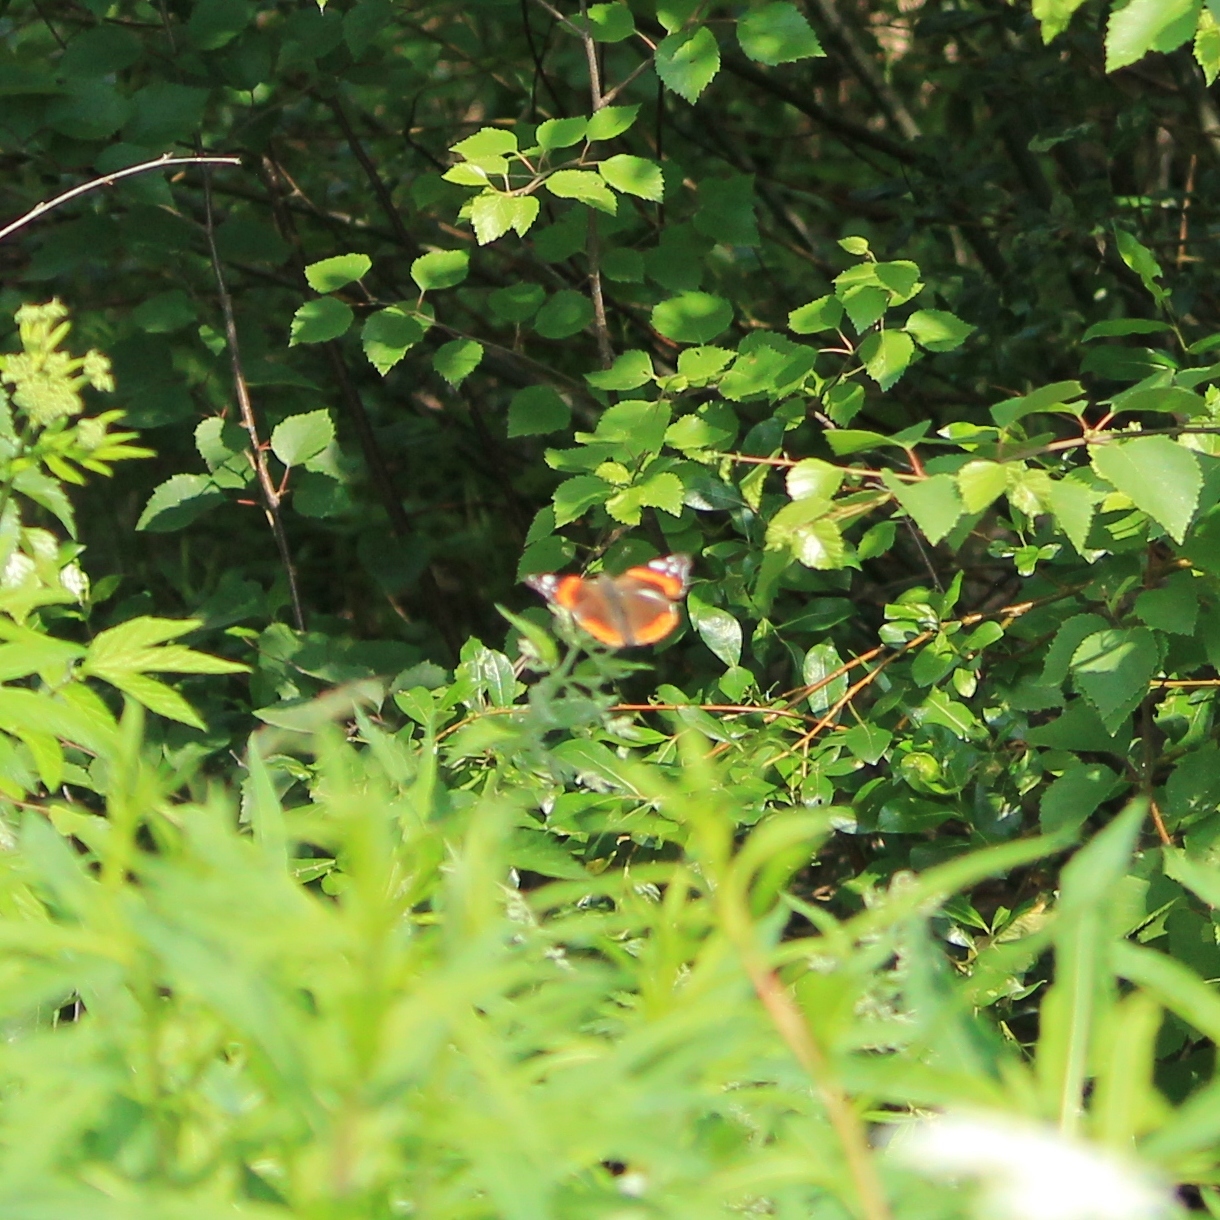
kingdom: Animalia
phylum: Arthropoda
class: Insecta
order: Lepidoptera
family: Nymphalidae
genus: Vanessa
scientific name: Vanessa atalanta
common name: Red admiral
